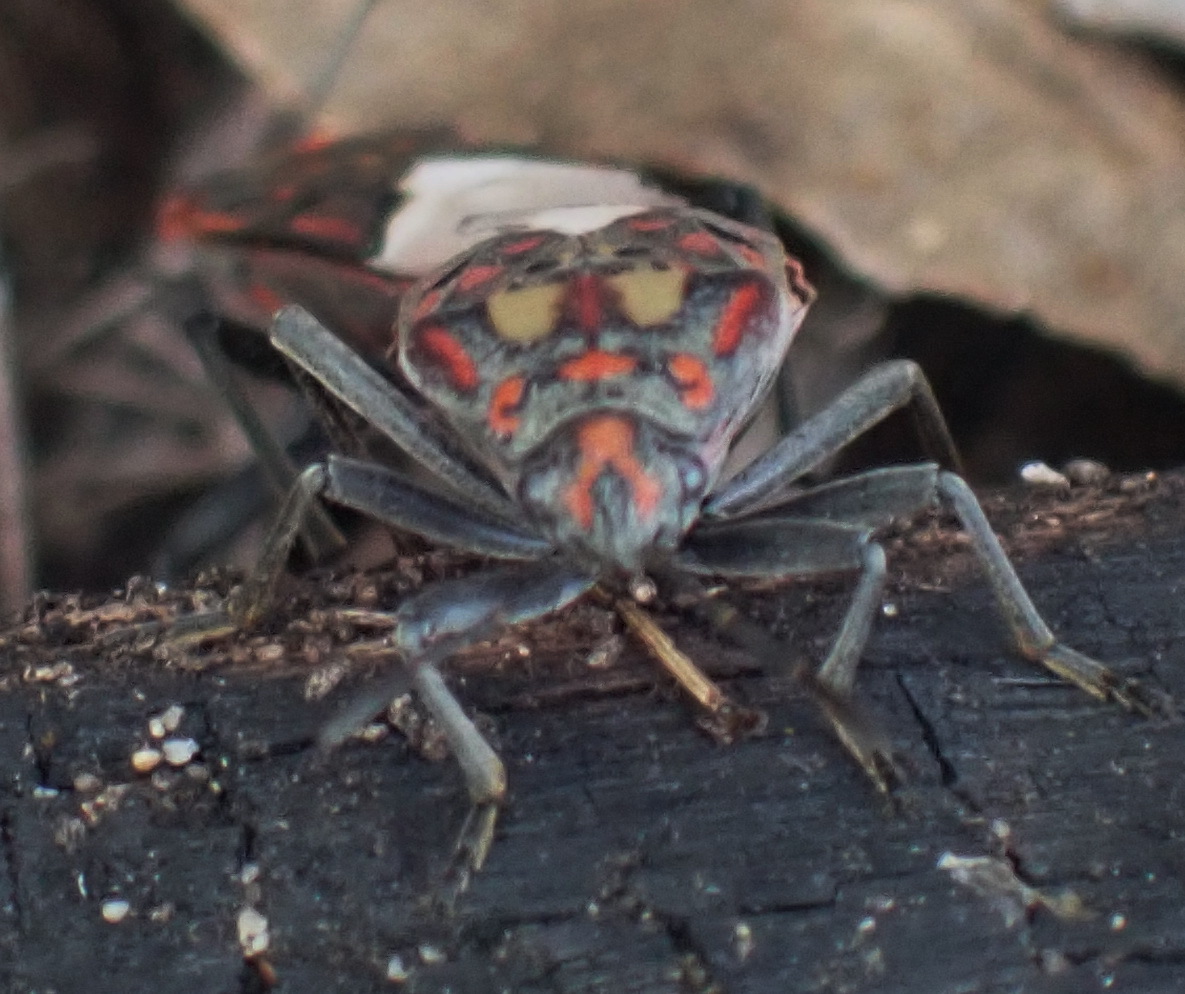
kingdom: Animalia
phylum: Arthropoda
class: Insecta
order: Hemiptera
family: Lygaeidae
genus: Spilostethus
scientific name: Spilostethus pandurus
